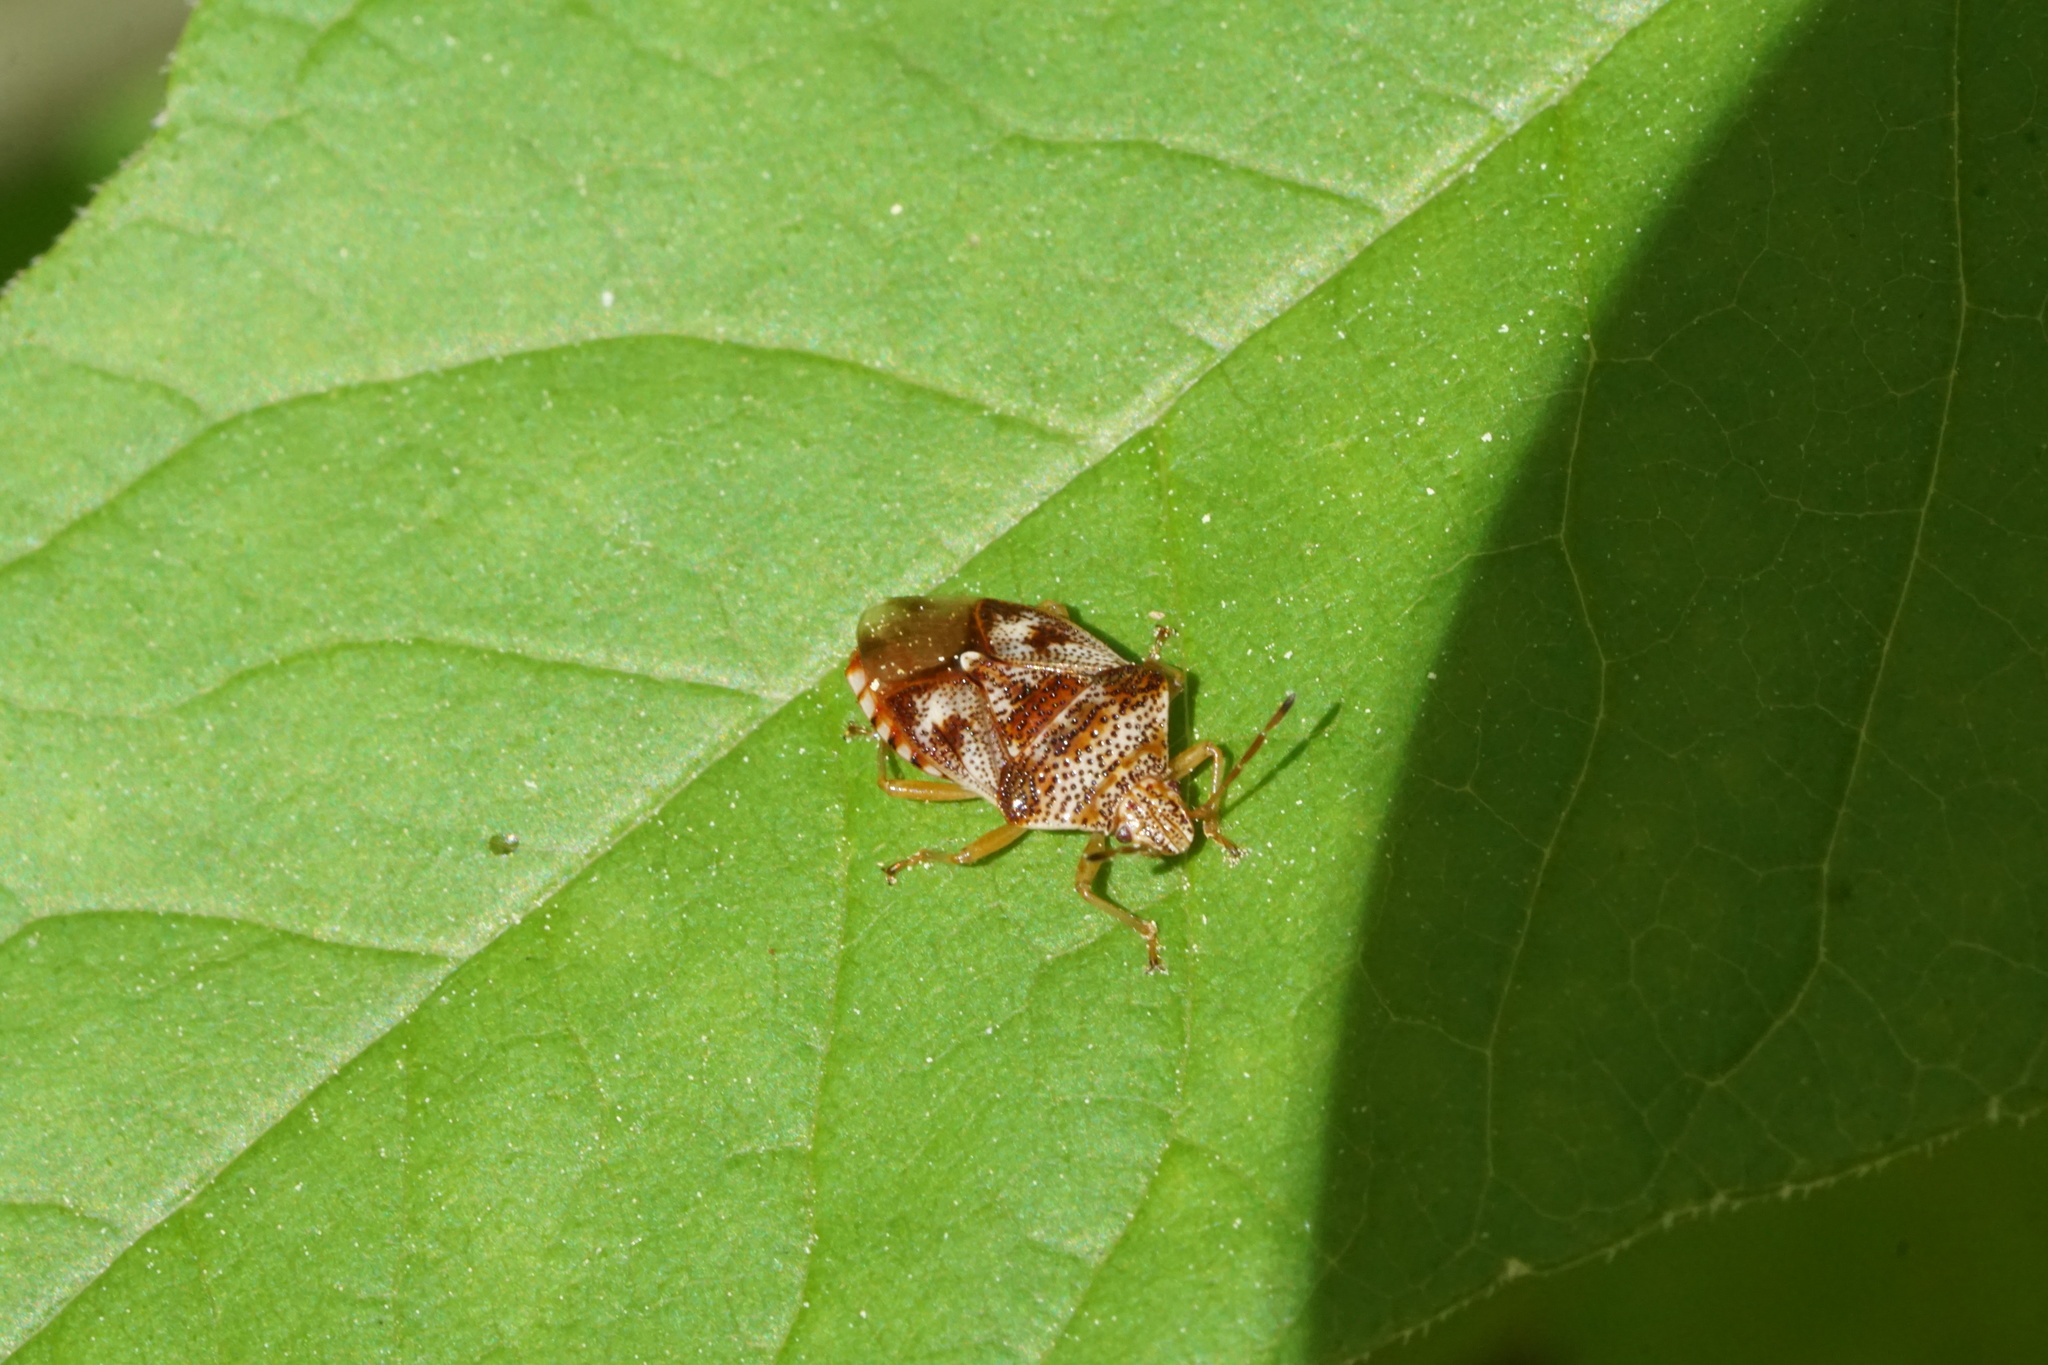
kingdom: Animalia
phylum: Arthropoda
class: Insecta
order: Hemiptera
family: Acanthosomatidae
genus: Elasmucha
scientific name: Elasmucha lateralis
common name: Shield bug
